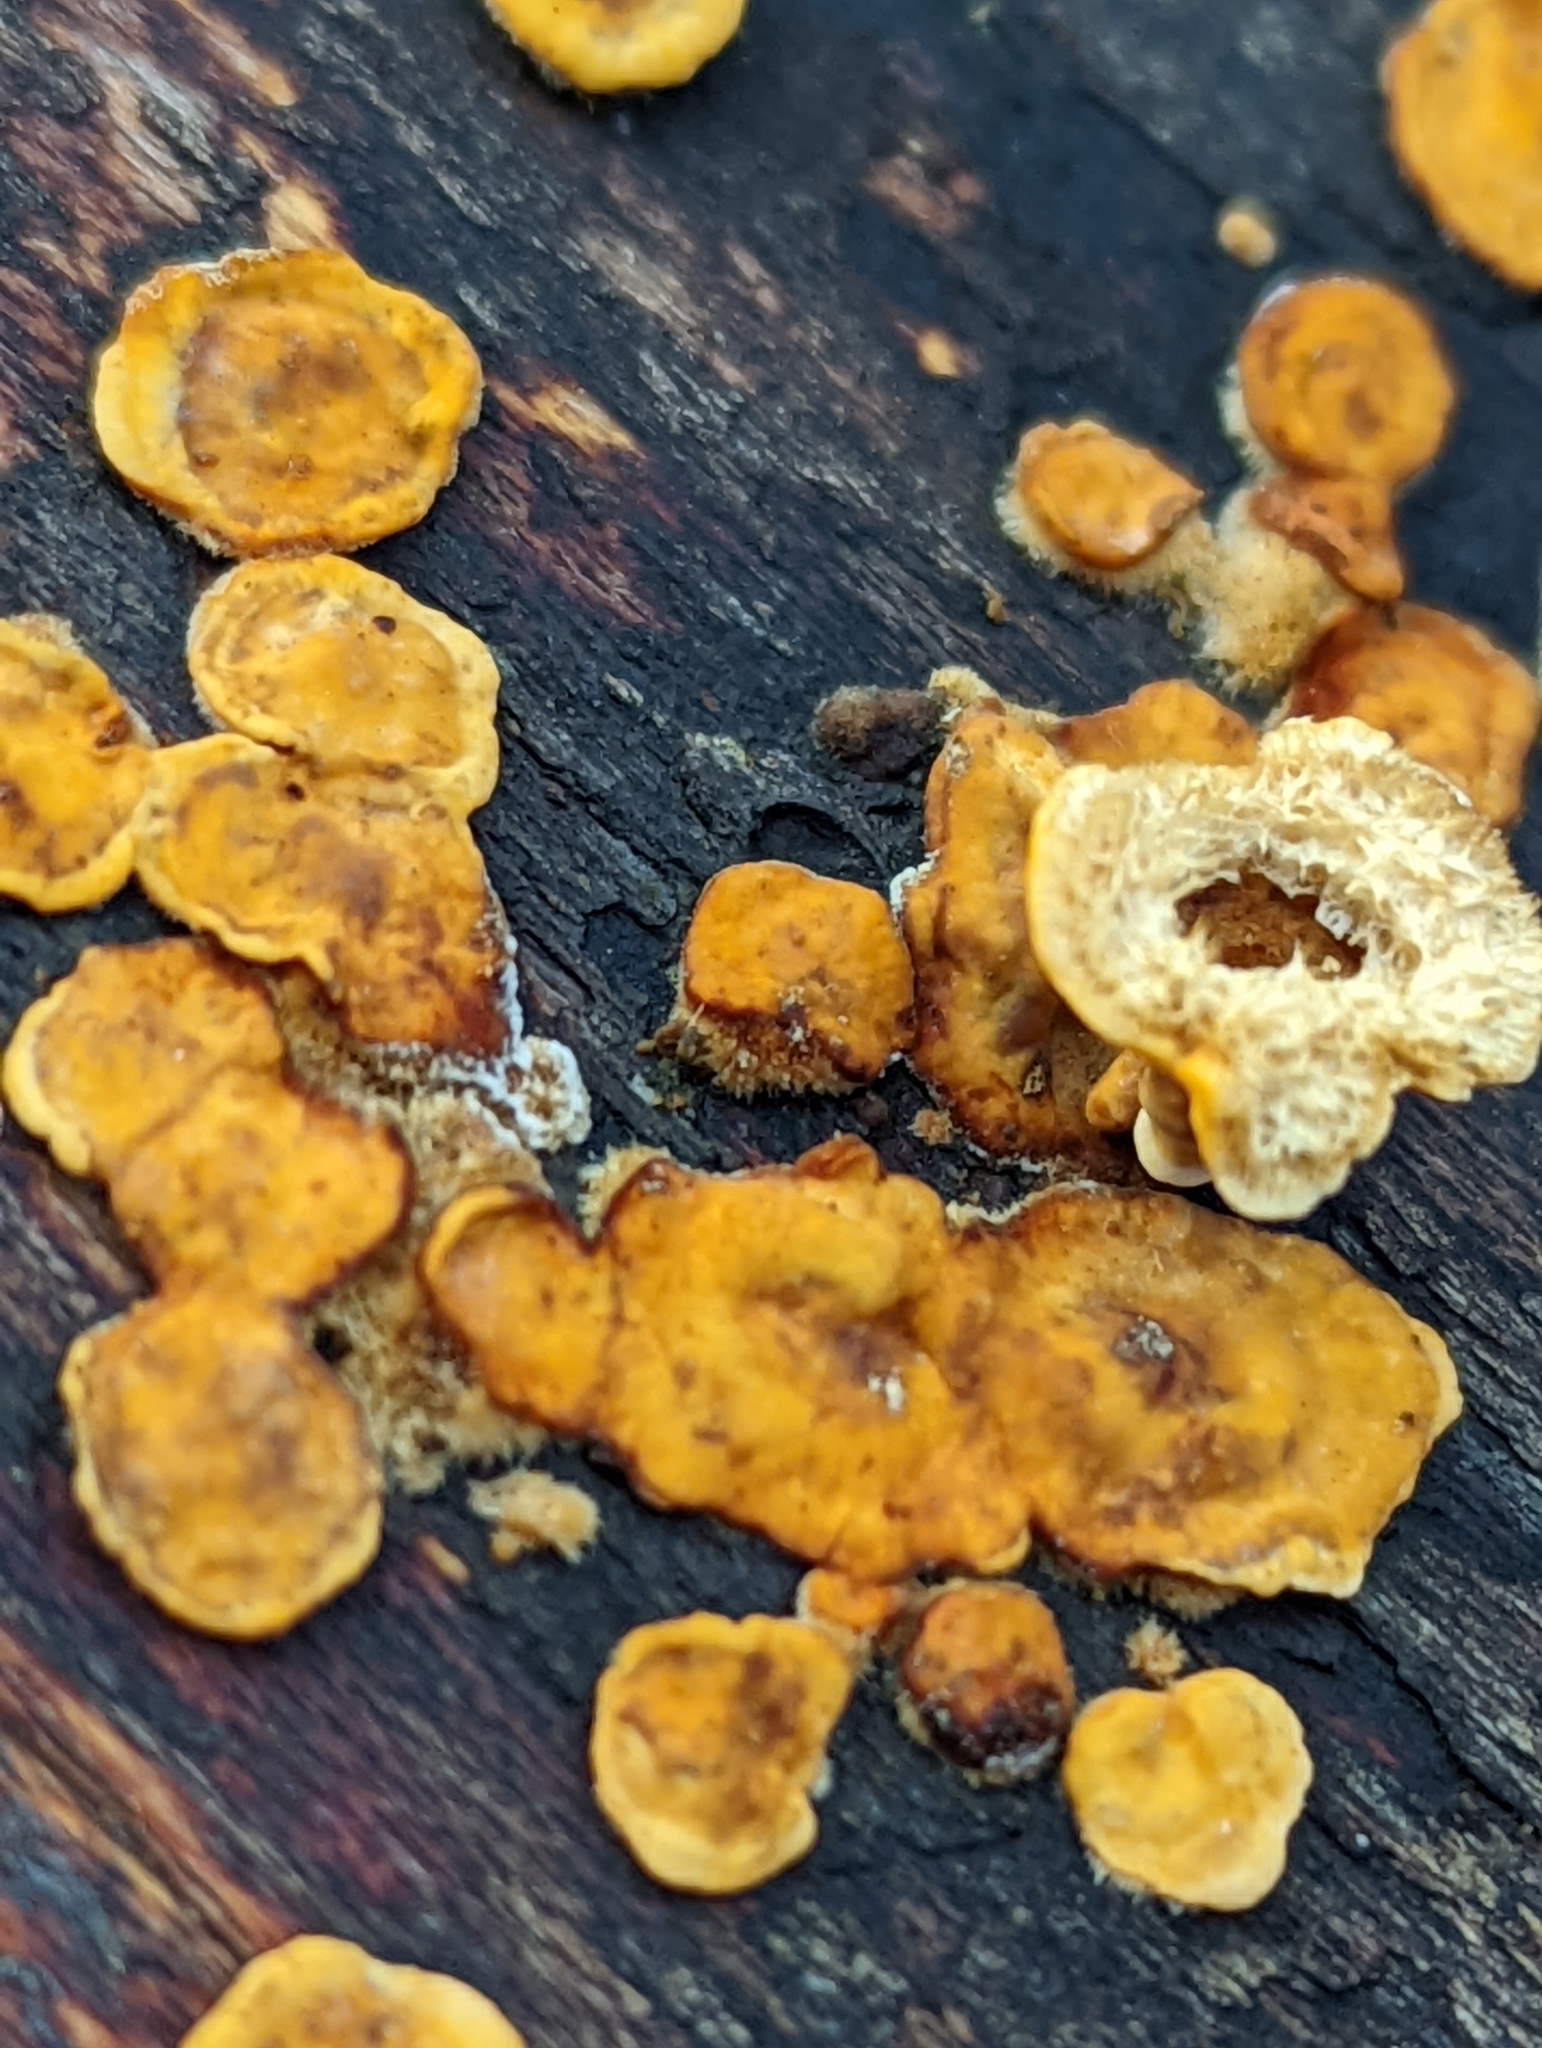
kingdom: Fungi
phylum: Basidiomycota
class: Agaricomycetes
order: Russulales
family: Stereaceae
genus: Stereum
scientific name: Stereum hirsutum
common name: Hairy curtain crust
